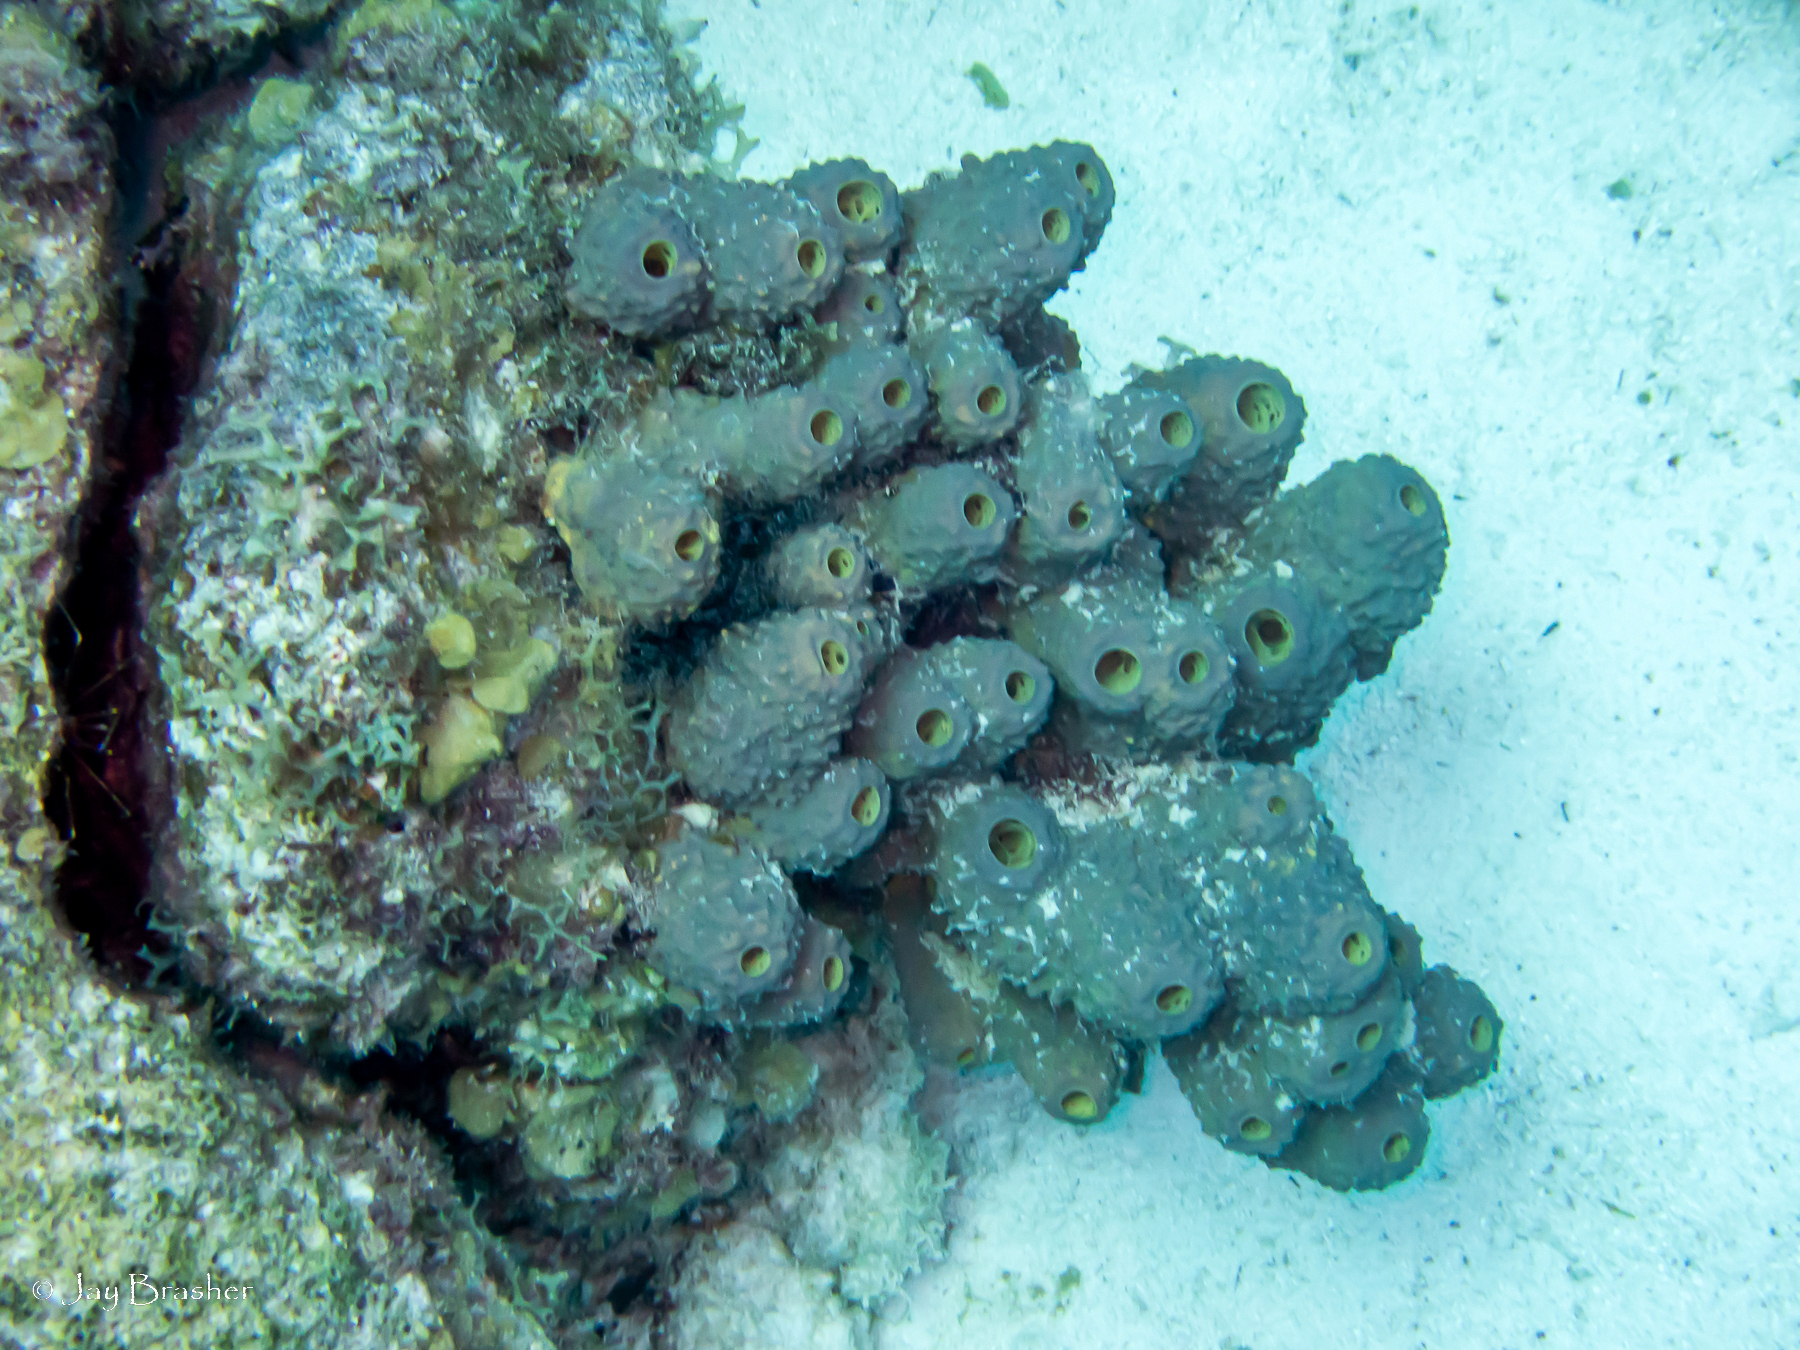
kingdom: Animalia
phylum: Porifera
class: Demospongiae
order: Verongiida
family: Aplysinidae
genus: Aiolochroia
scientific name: Aiolochroia crassa
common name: Branching tube sponge
